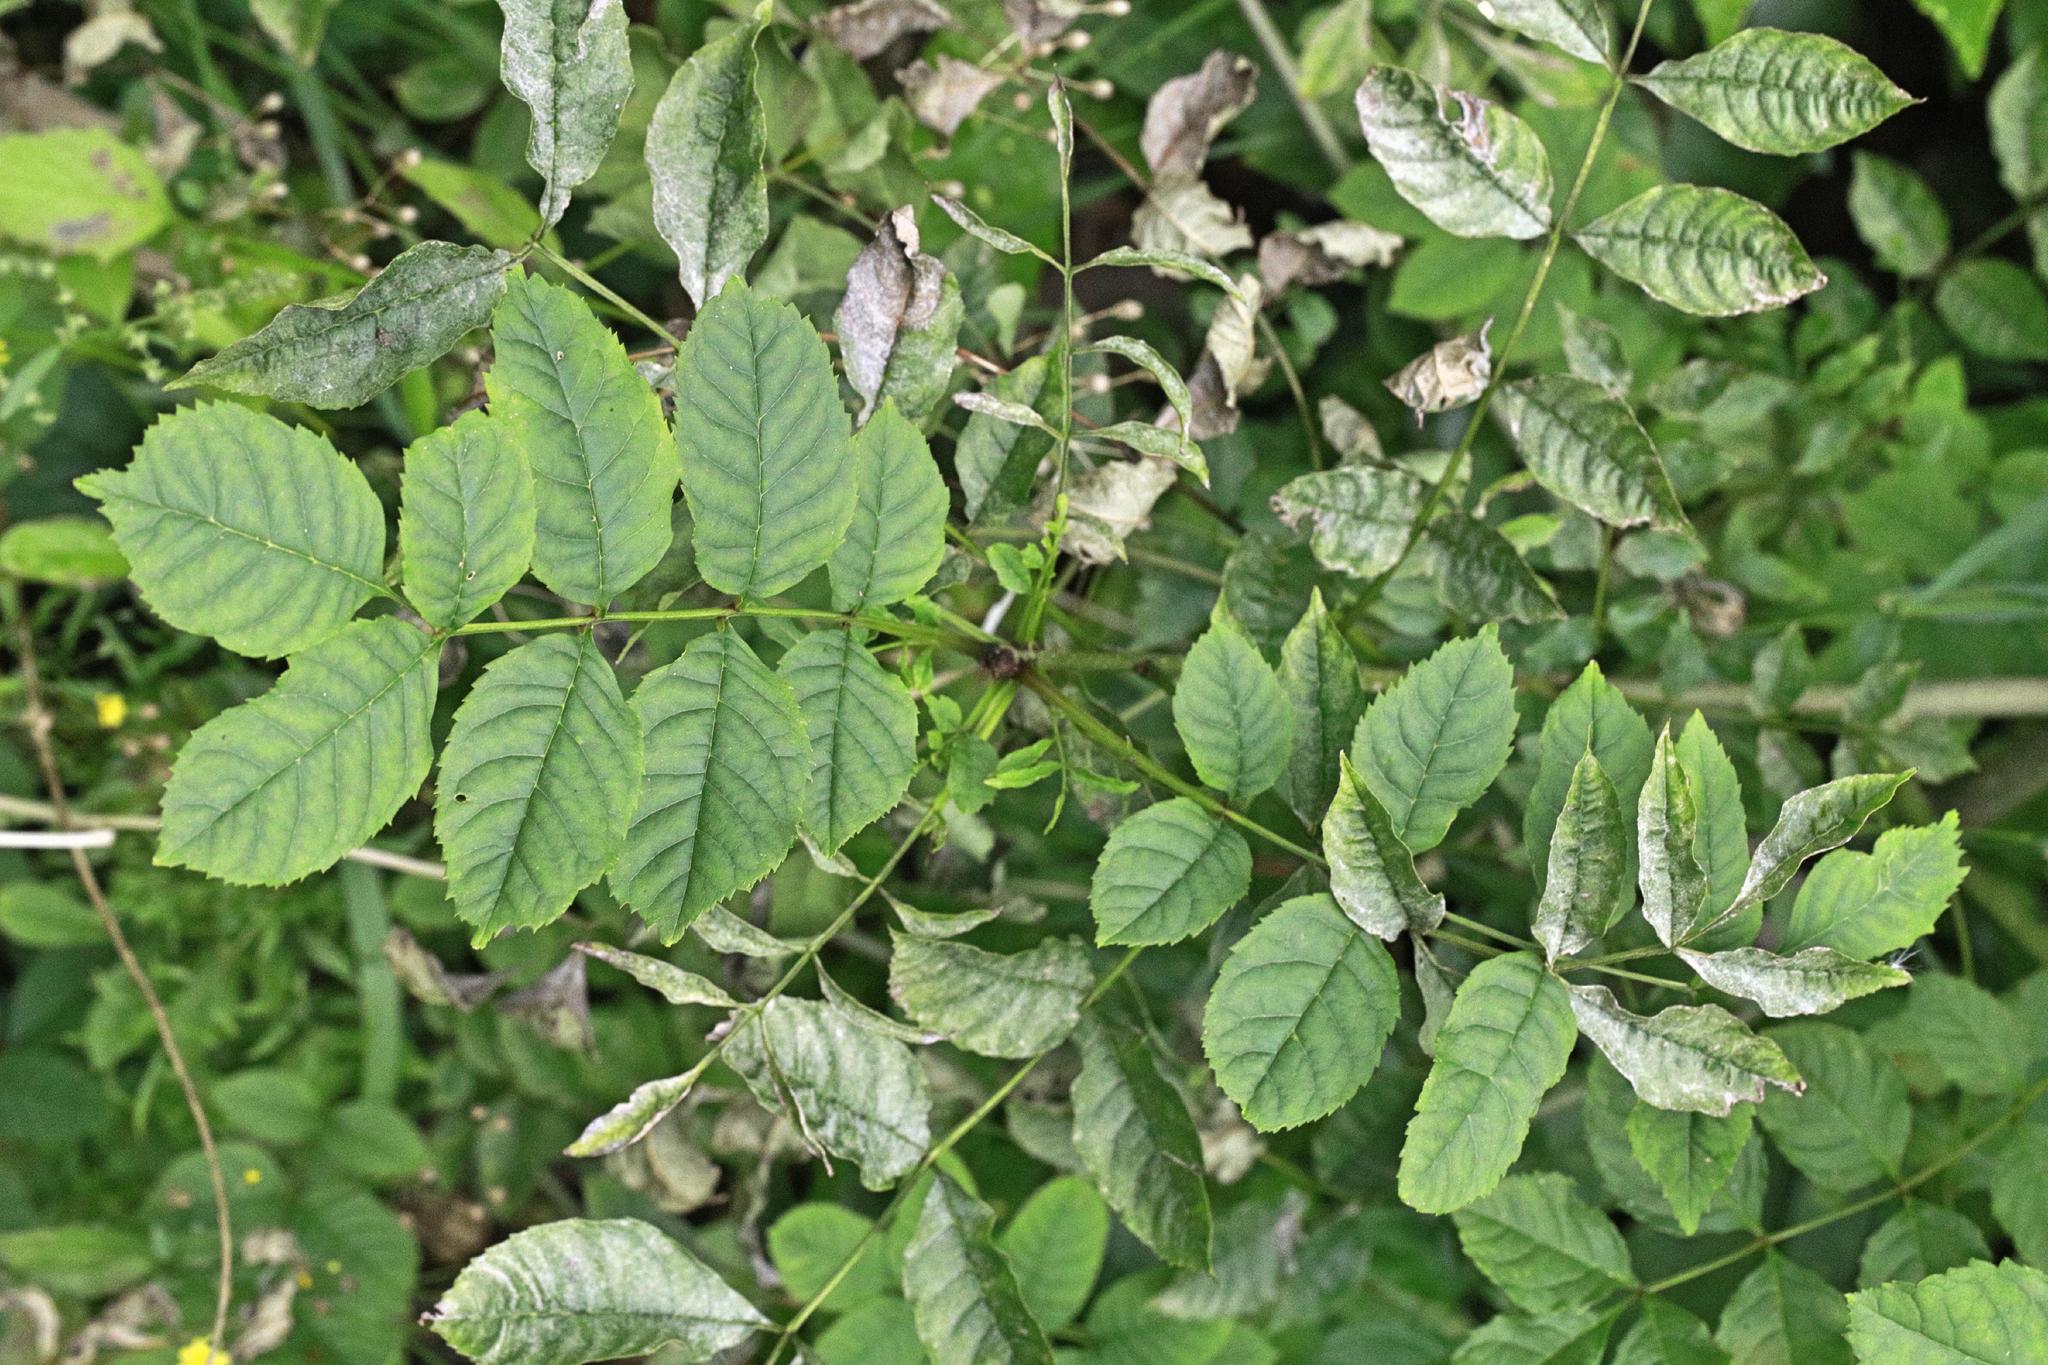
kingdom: Plantae
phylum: Tracheophyta
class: Magnoliopsida
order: Lamiales
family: Oleaceae
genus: Fraxinus
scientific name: Fraxinus excelsior
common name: European ash
